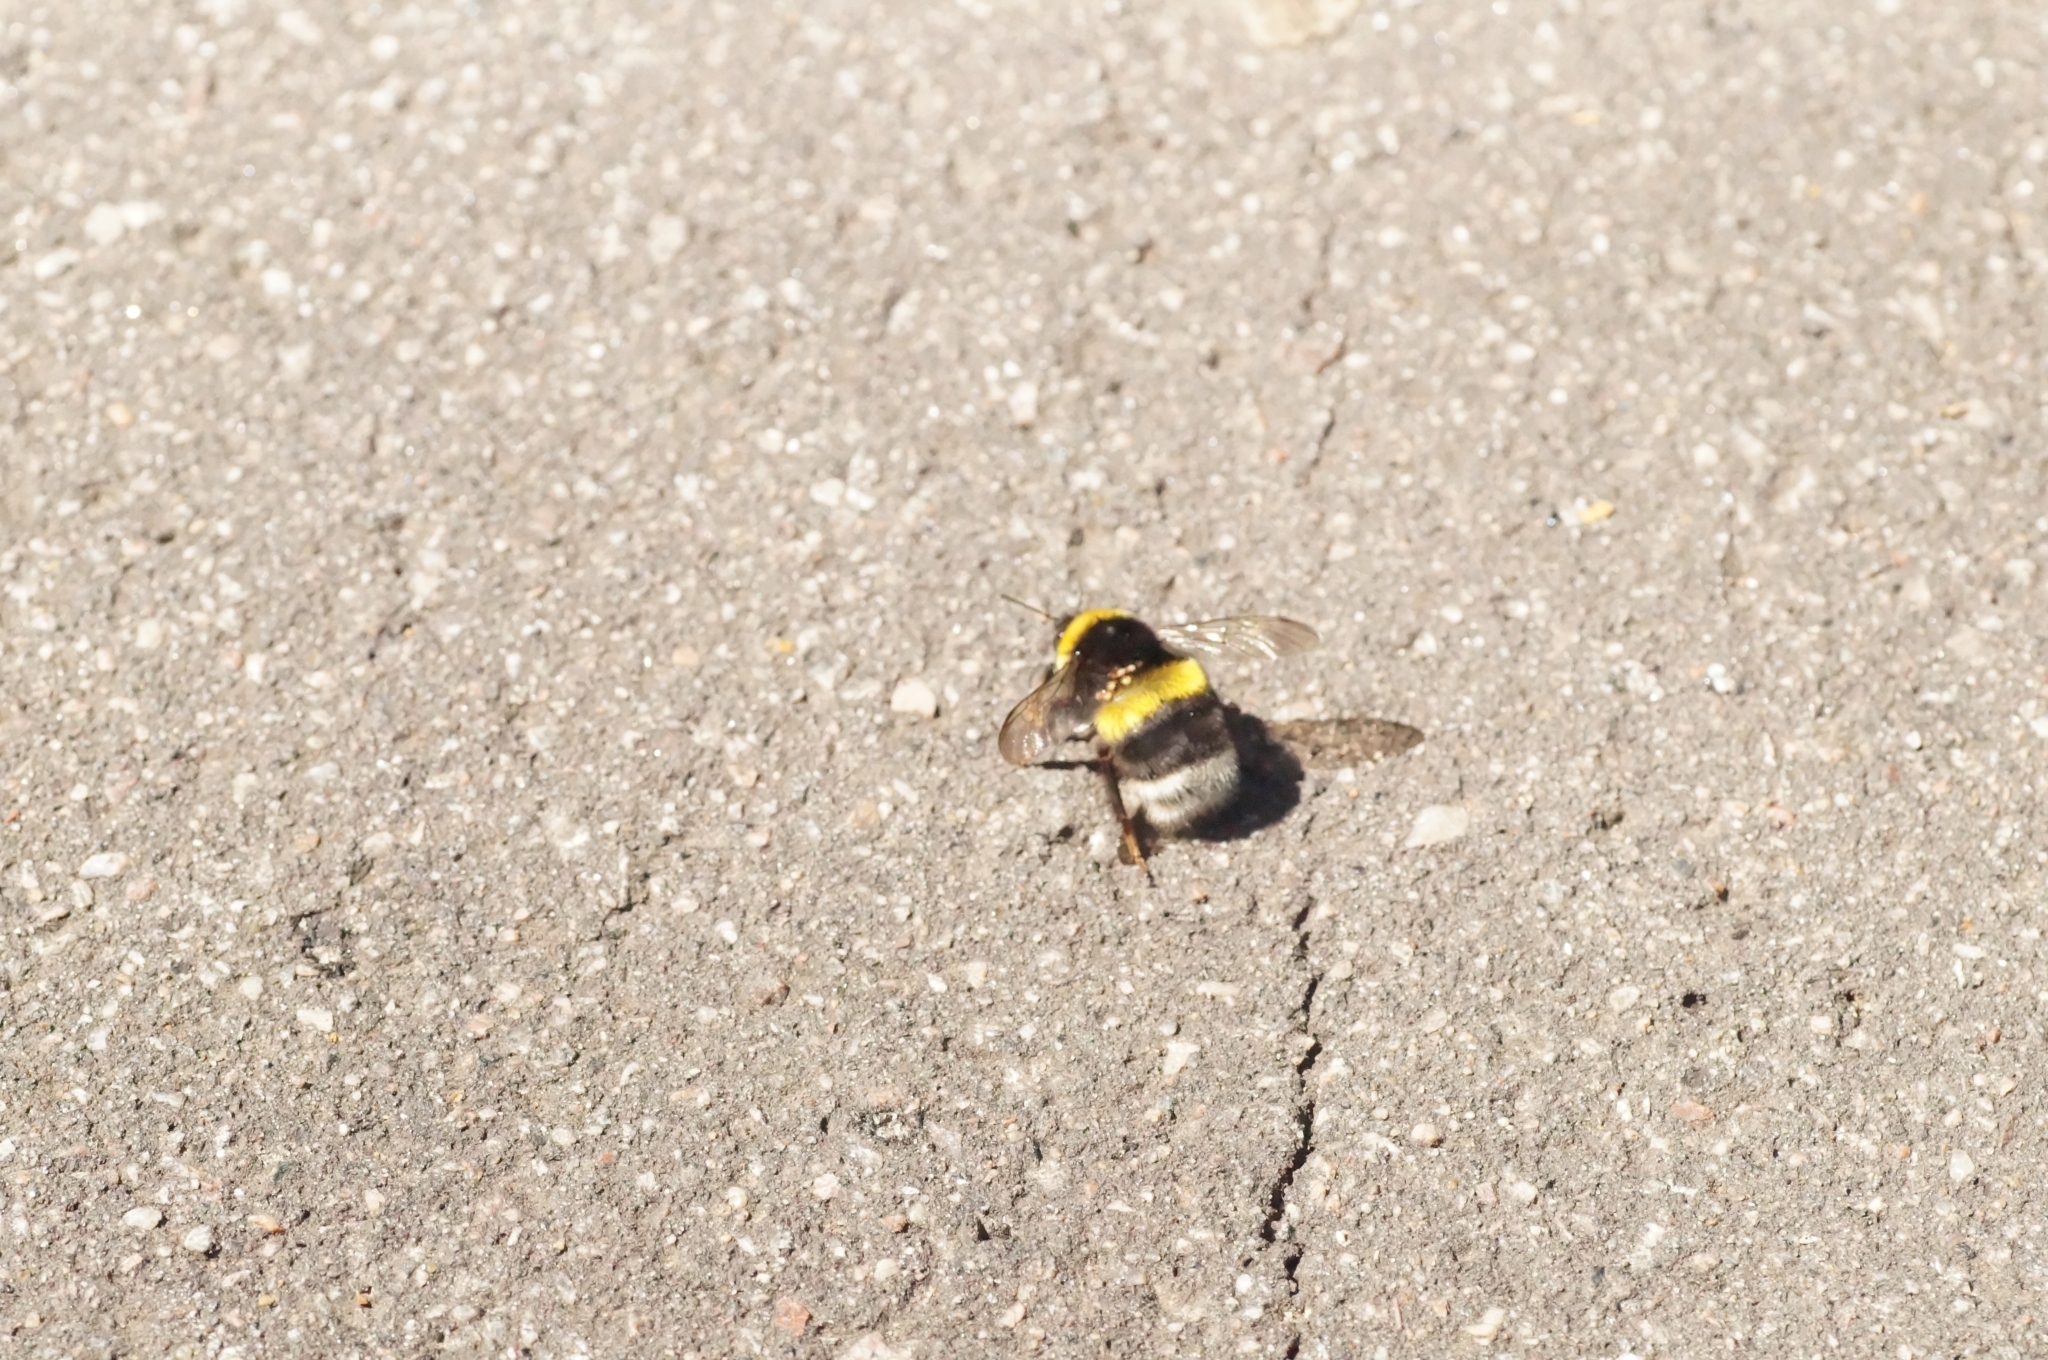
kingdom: Animalia
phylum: Arthropoda
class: Insecta
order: Hymenoptera
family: Apidae
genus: Bombus
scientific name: Bombus
